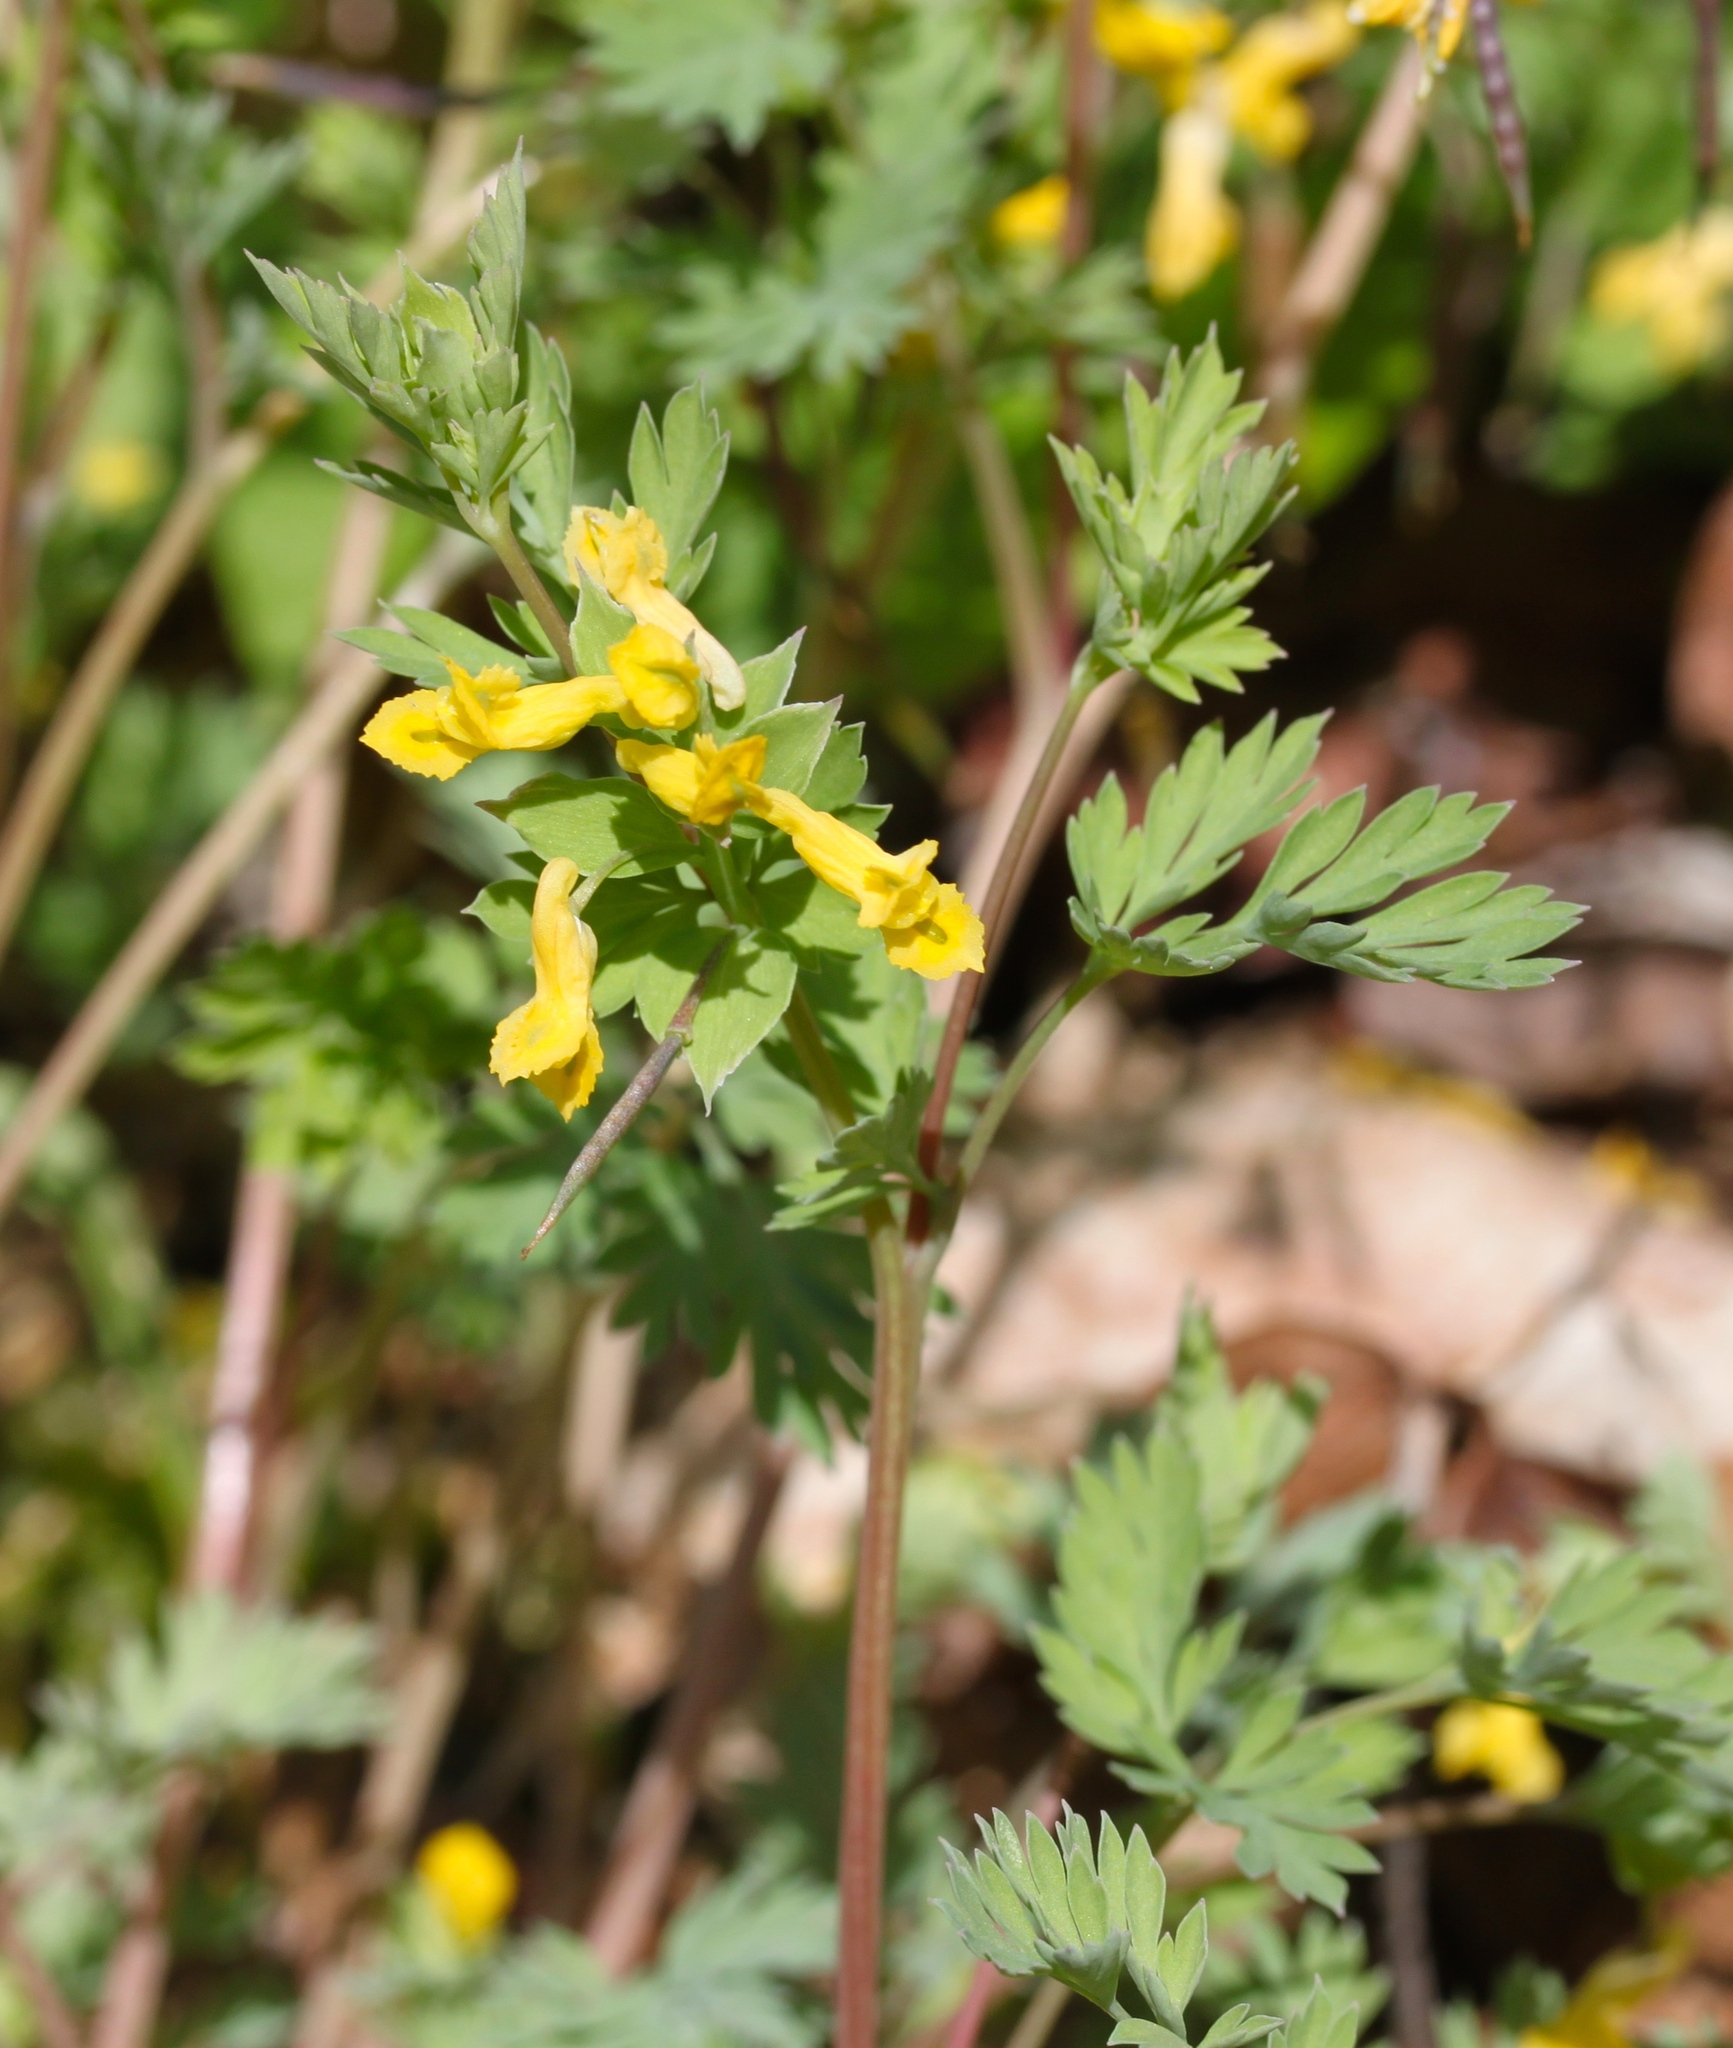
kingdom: Plantae
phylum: Tracheophyta
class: Magnoliopsida
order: Ranunculales
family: Papaveraceae
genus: Corydalis
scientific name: Corydalis flavula
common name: Yellow corydalis
